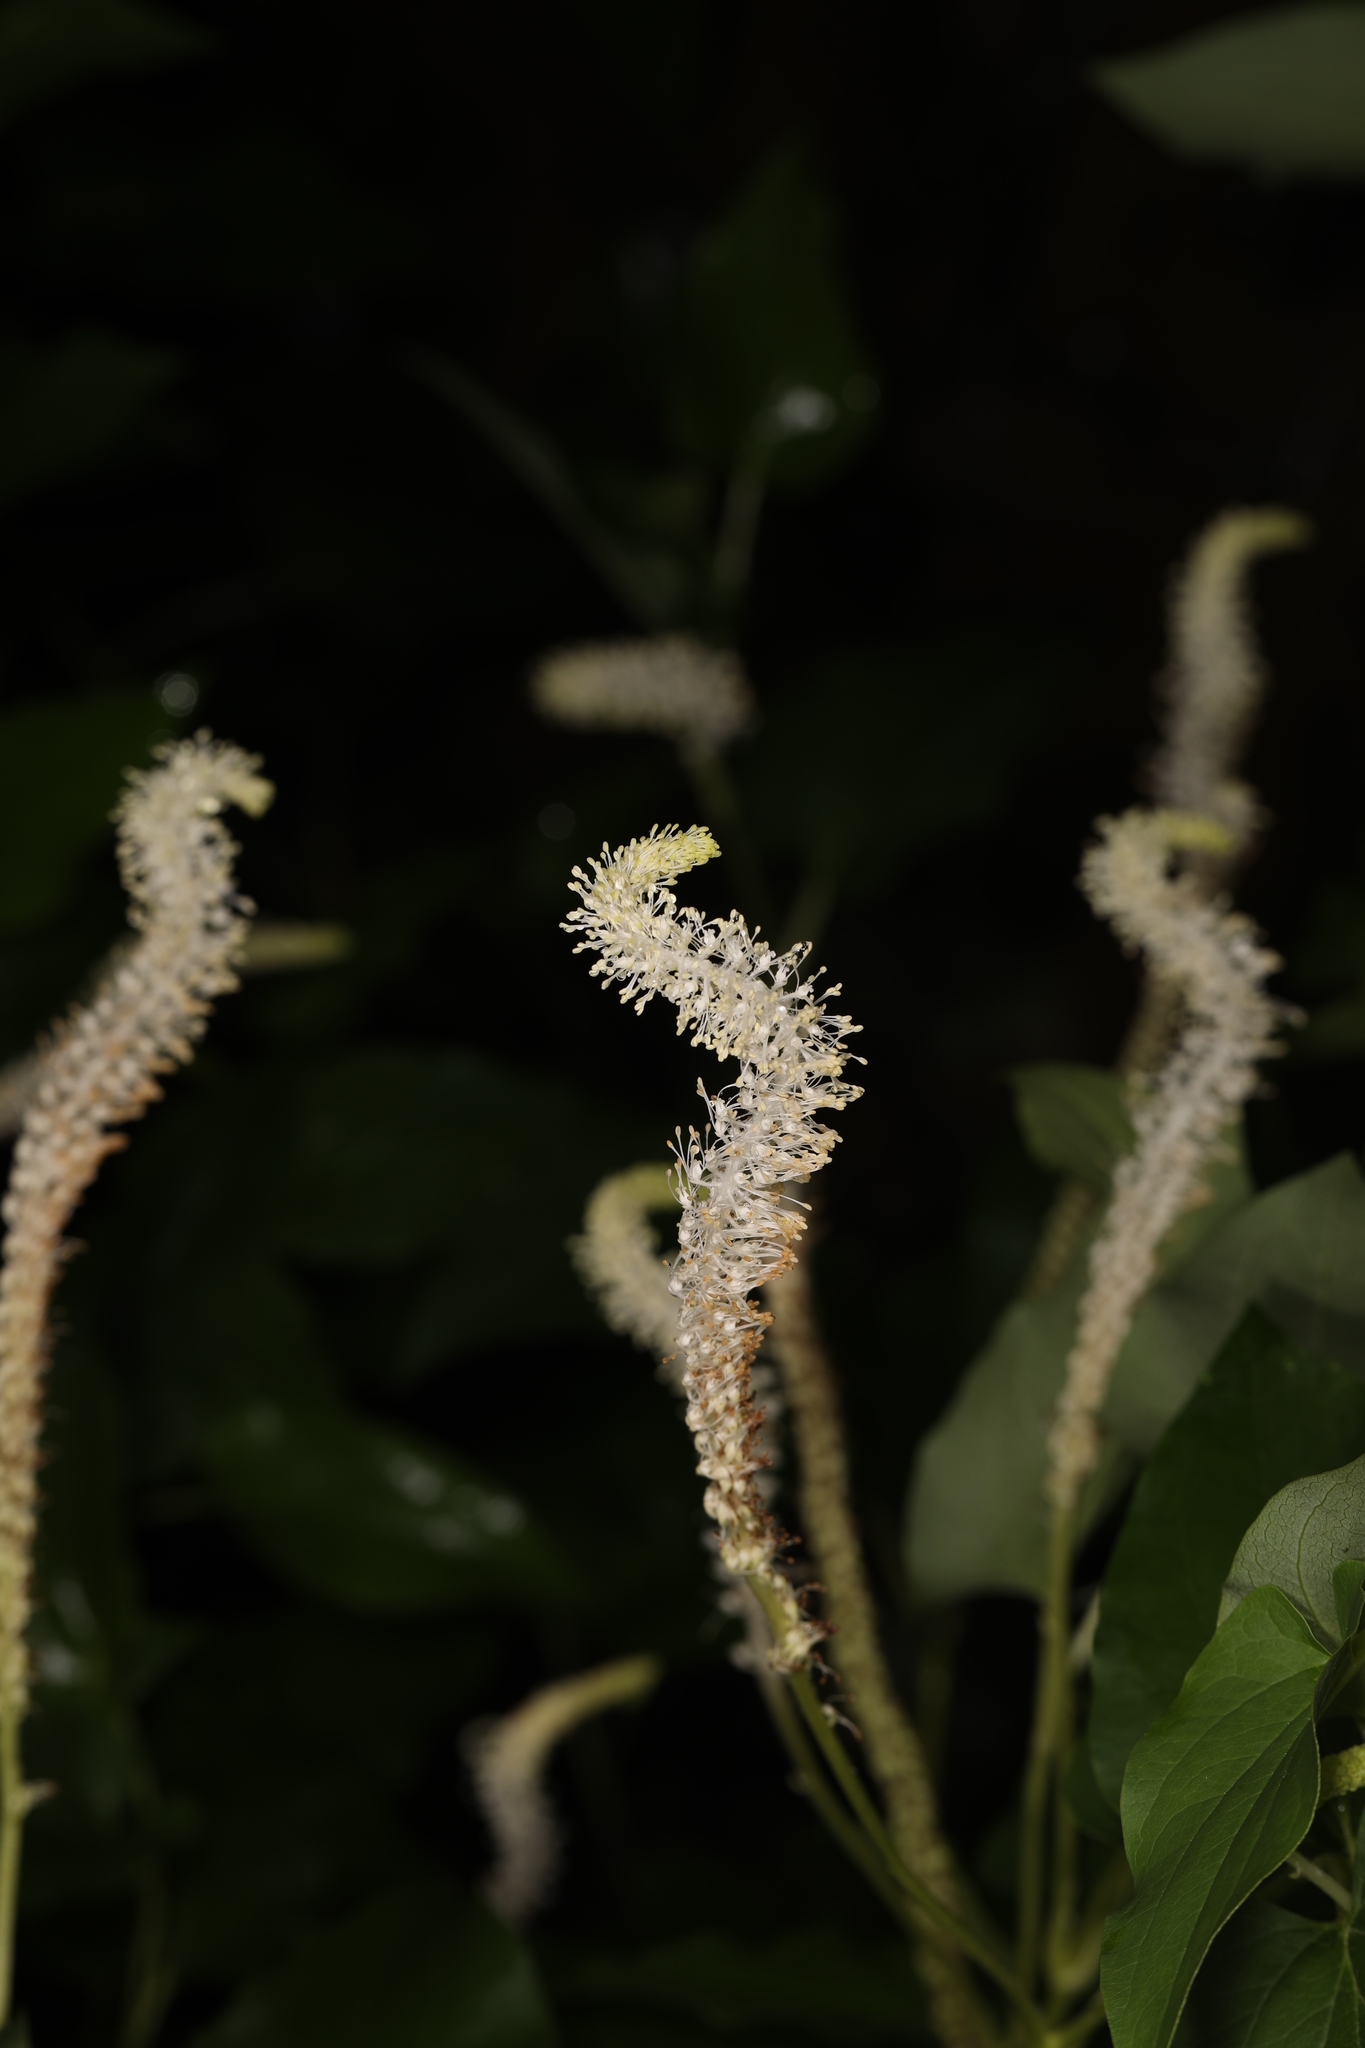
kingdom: Plantae
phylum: Tracheophyta
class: Magnoliopsida
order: Piperales
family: Saururaceae
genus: Saururus
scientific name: Saururus cernuus
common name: Lizard's-tail
